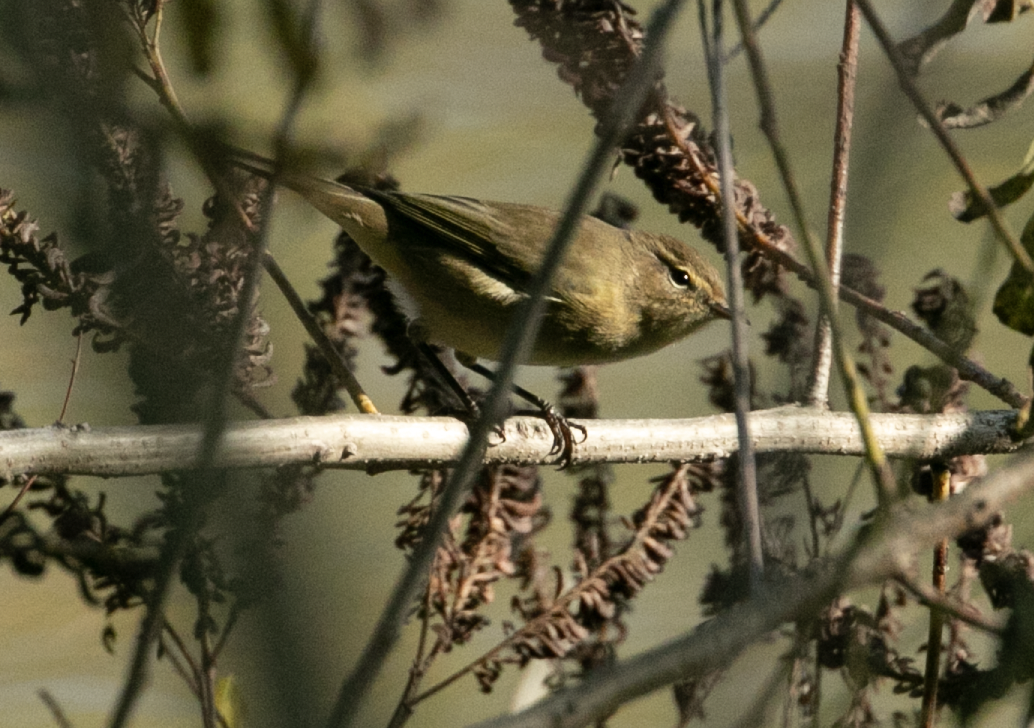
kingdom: Animalia
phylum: Chordata
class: Aves
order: Passeriformes
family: Phylloscopidae
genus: Phylloscopus
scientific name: Phylloscopus collybita
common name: Common chiffchaff
